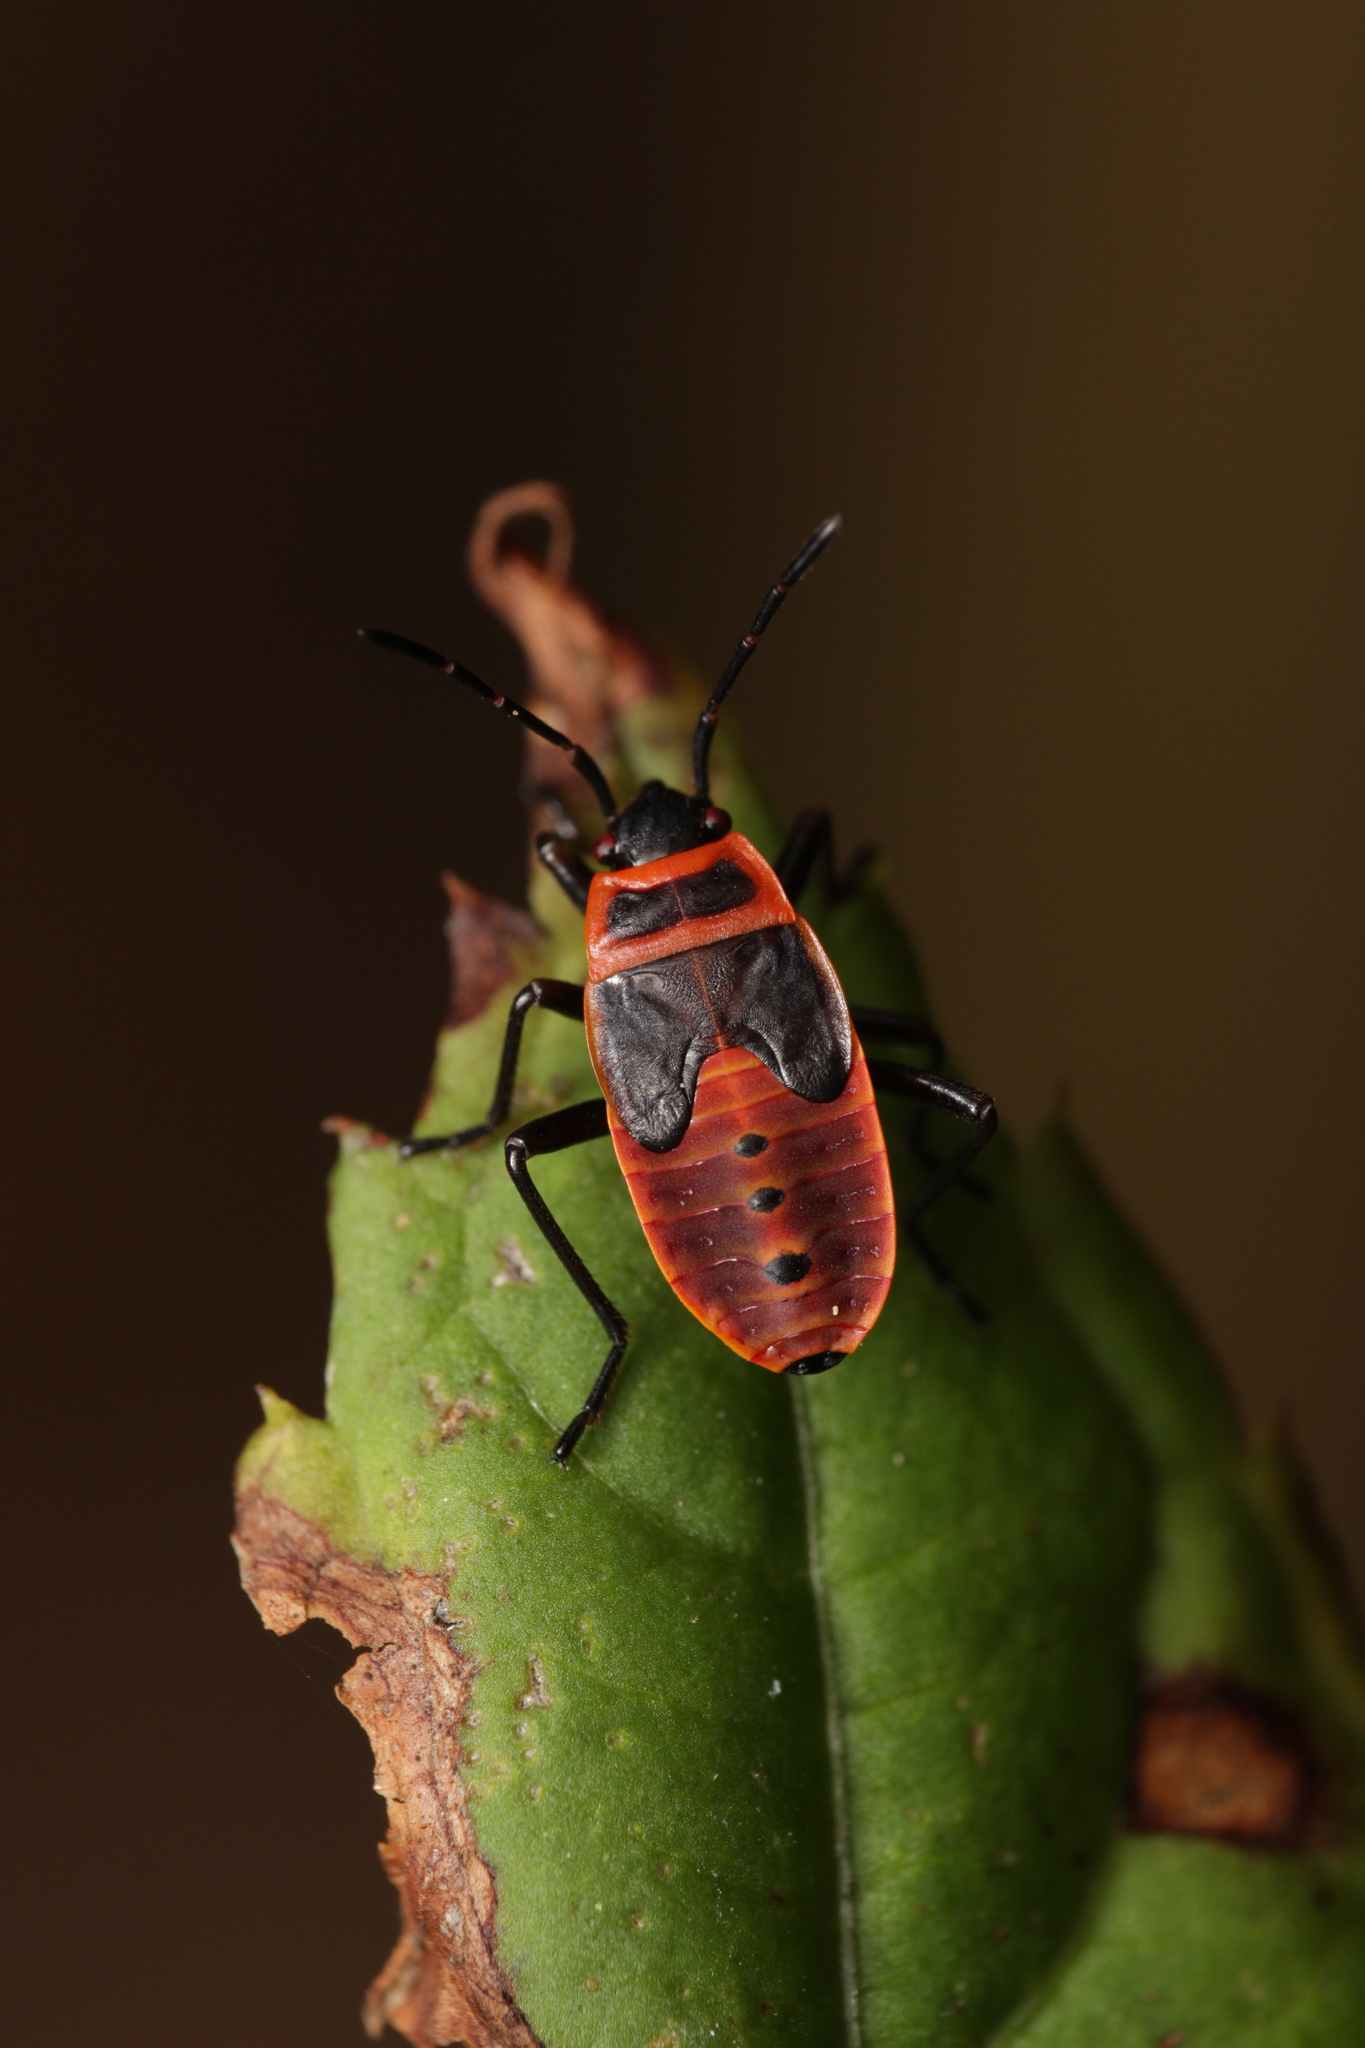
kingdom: Animalia
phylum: Arthropoda
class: Insecta
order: Hemiptera
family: Pyrrhocoridae
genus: Pyrrhocoris
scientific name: Pyrrhocoris apterus
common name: Firebug
